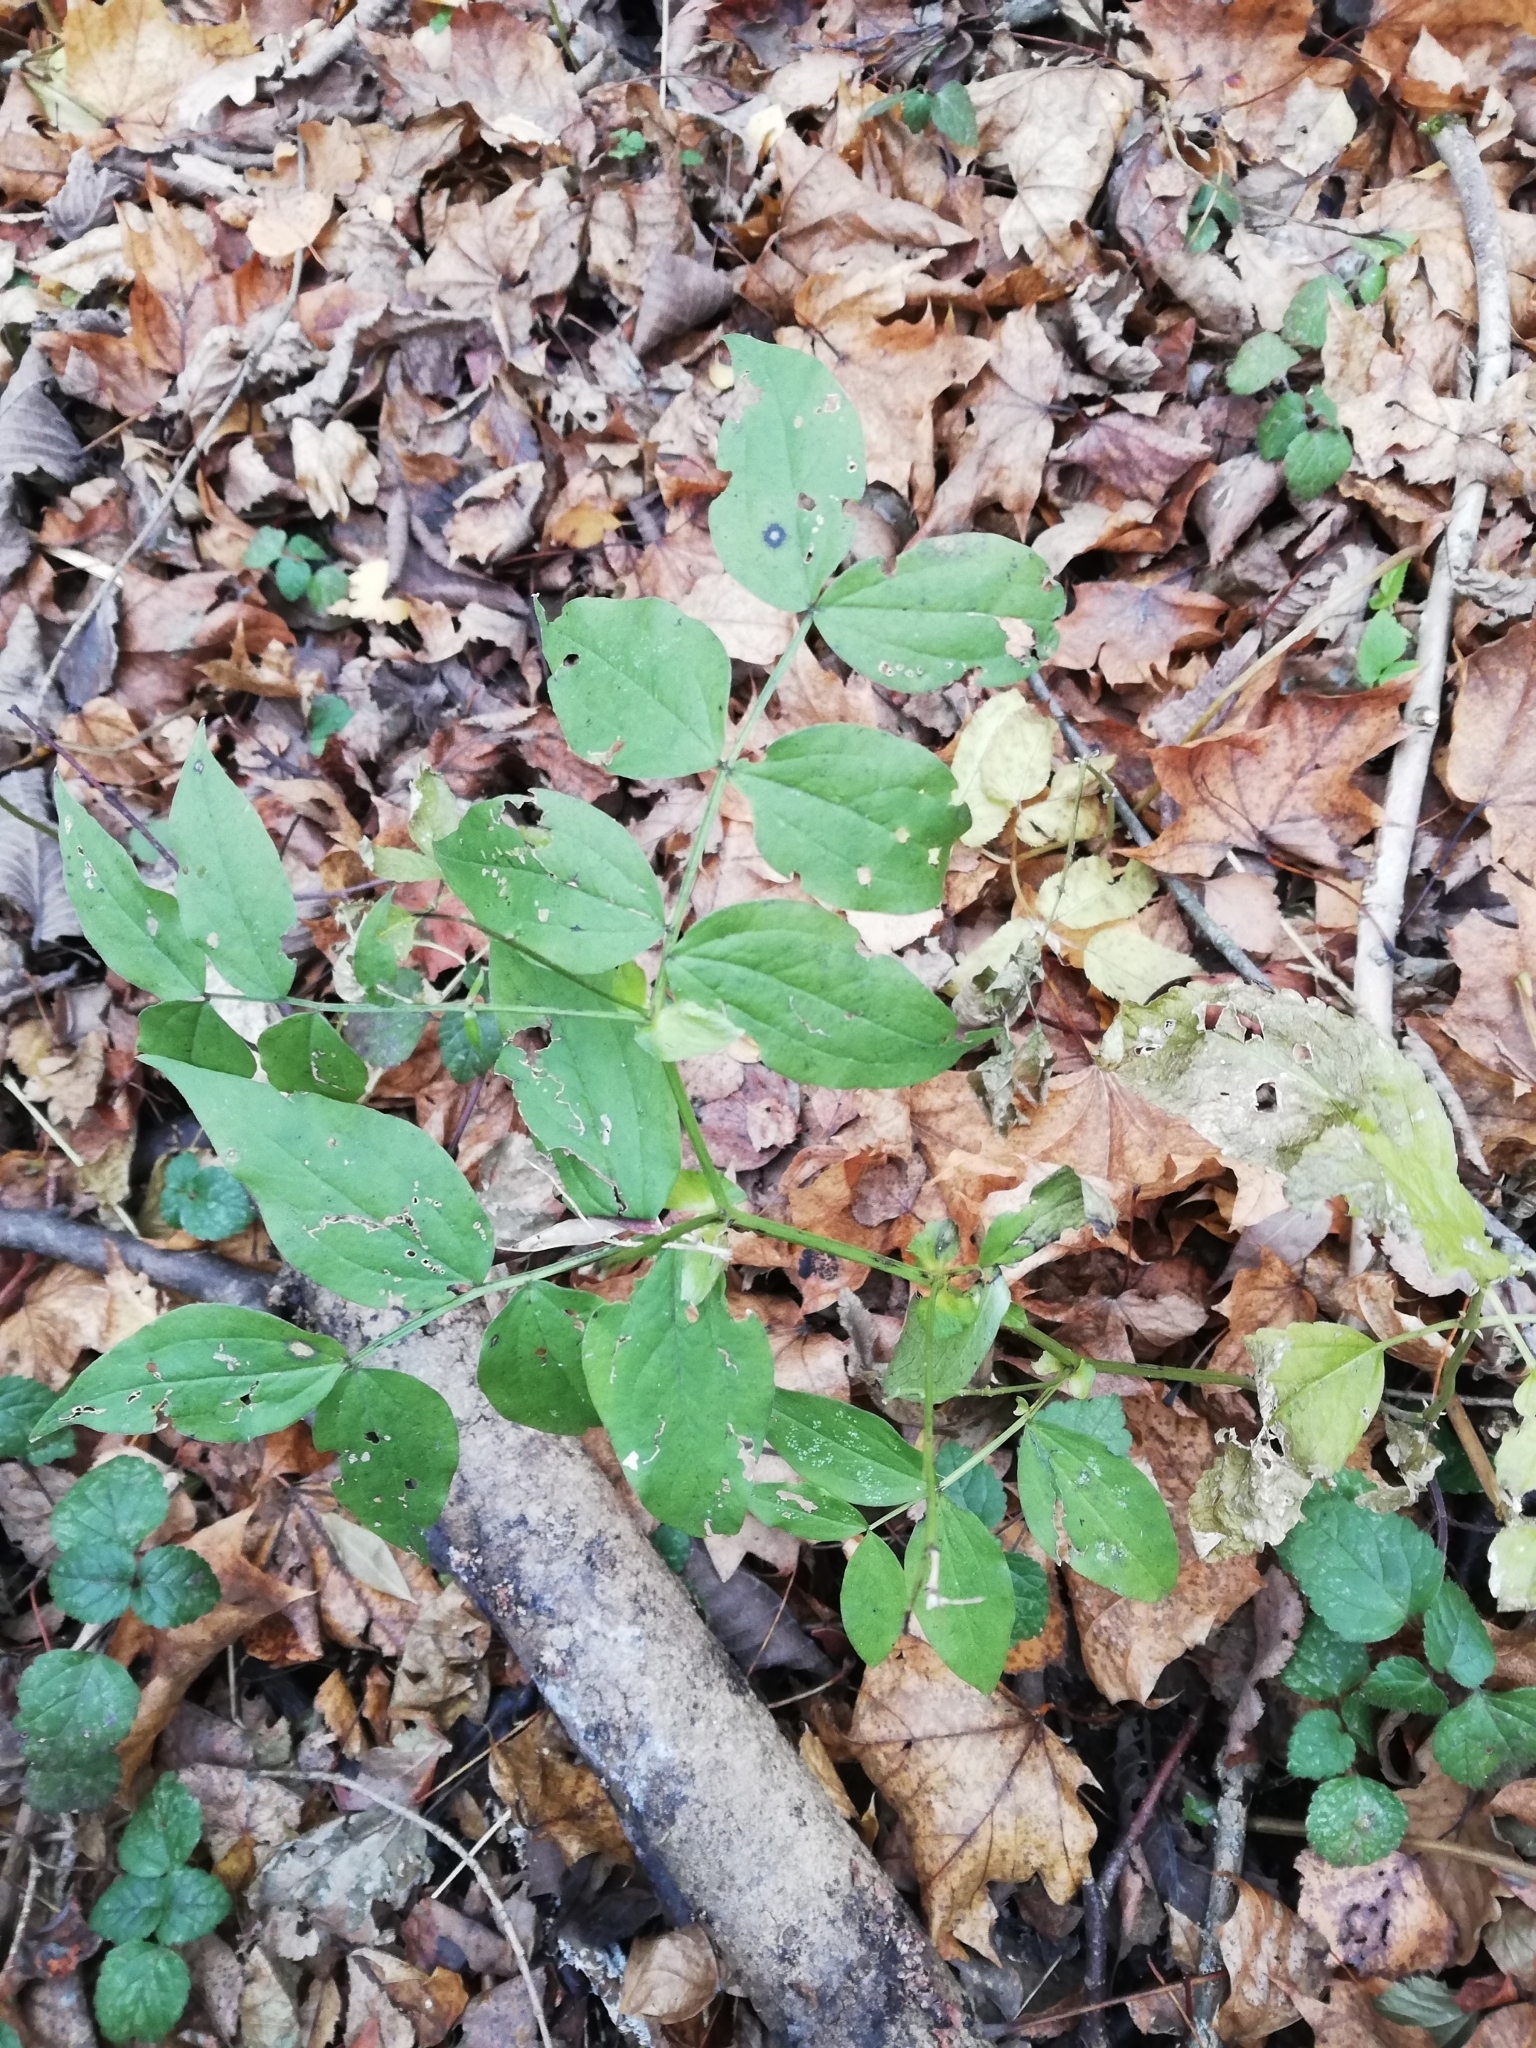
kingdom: Plantae
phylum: Tracheophyta
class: Magnoliopsida
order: Fabales
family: Fabaceae
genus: Lathyrus
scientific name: Lathyrus vernus
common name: Spring pea
